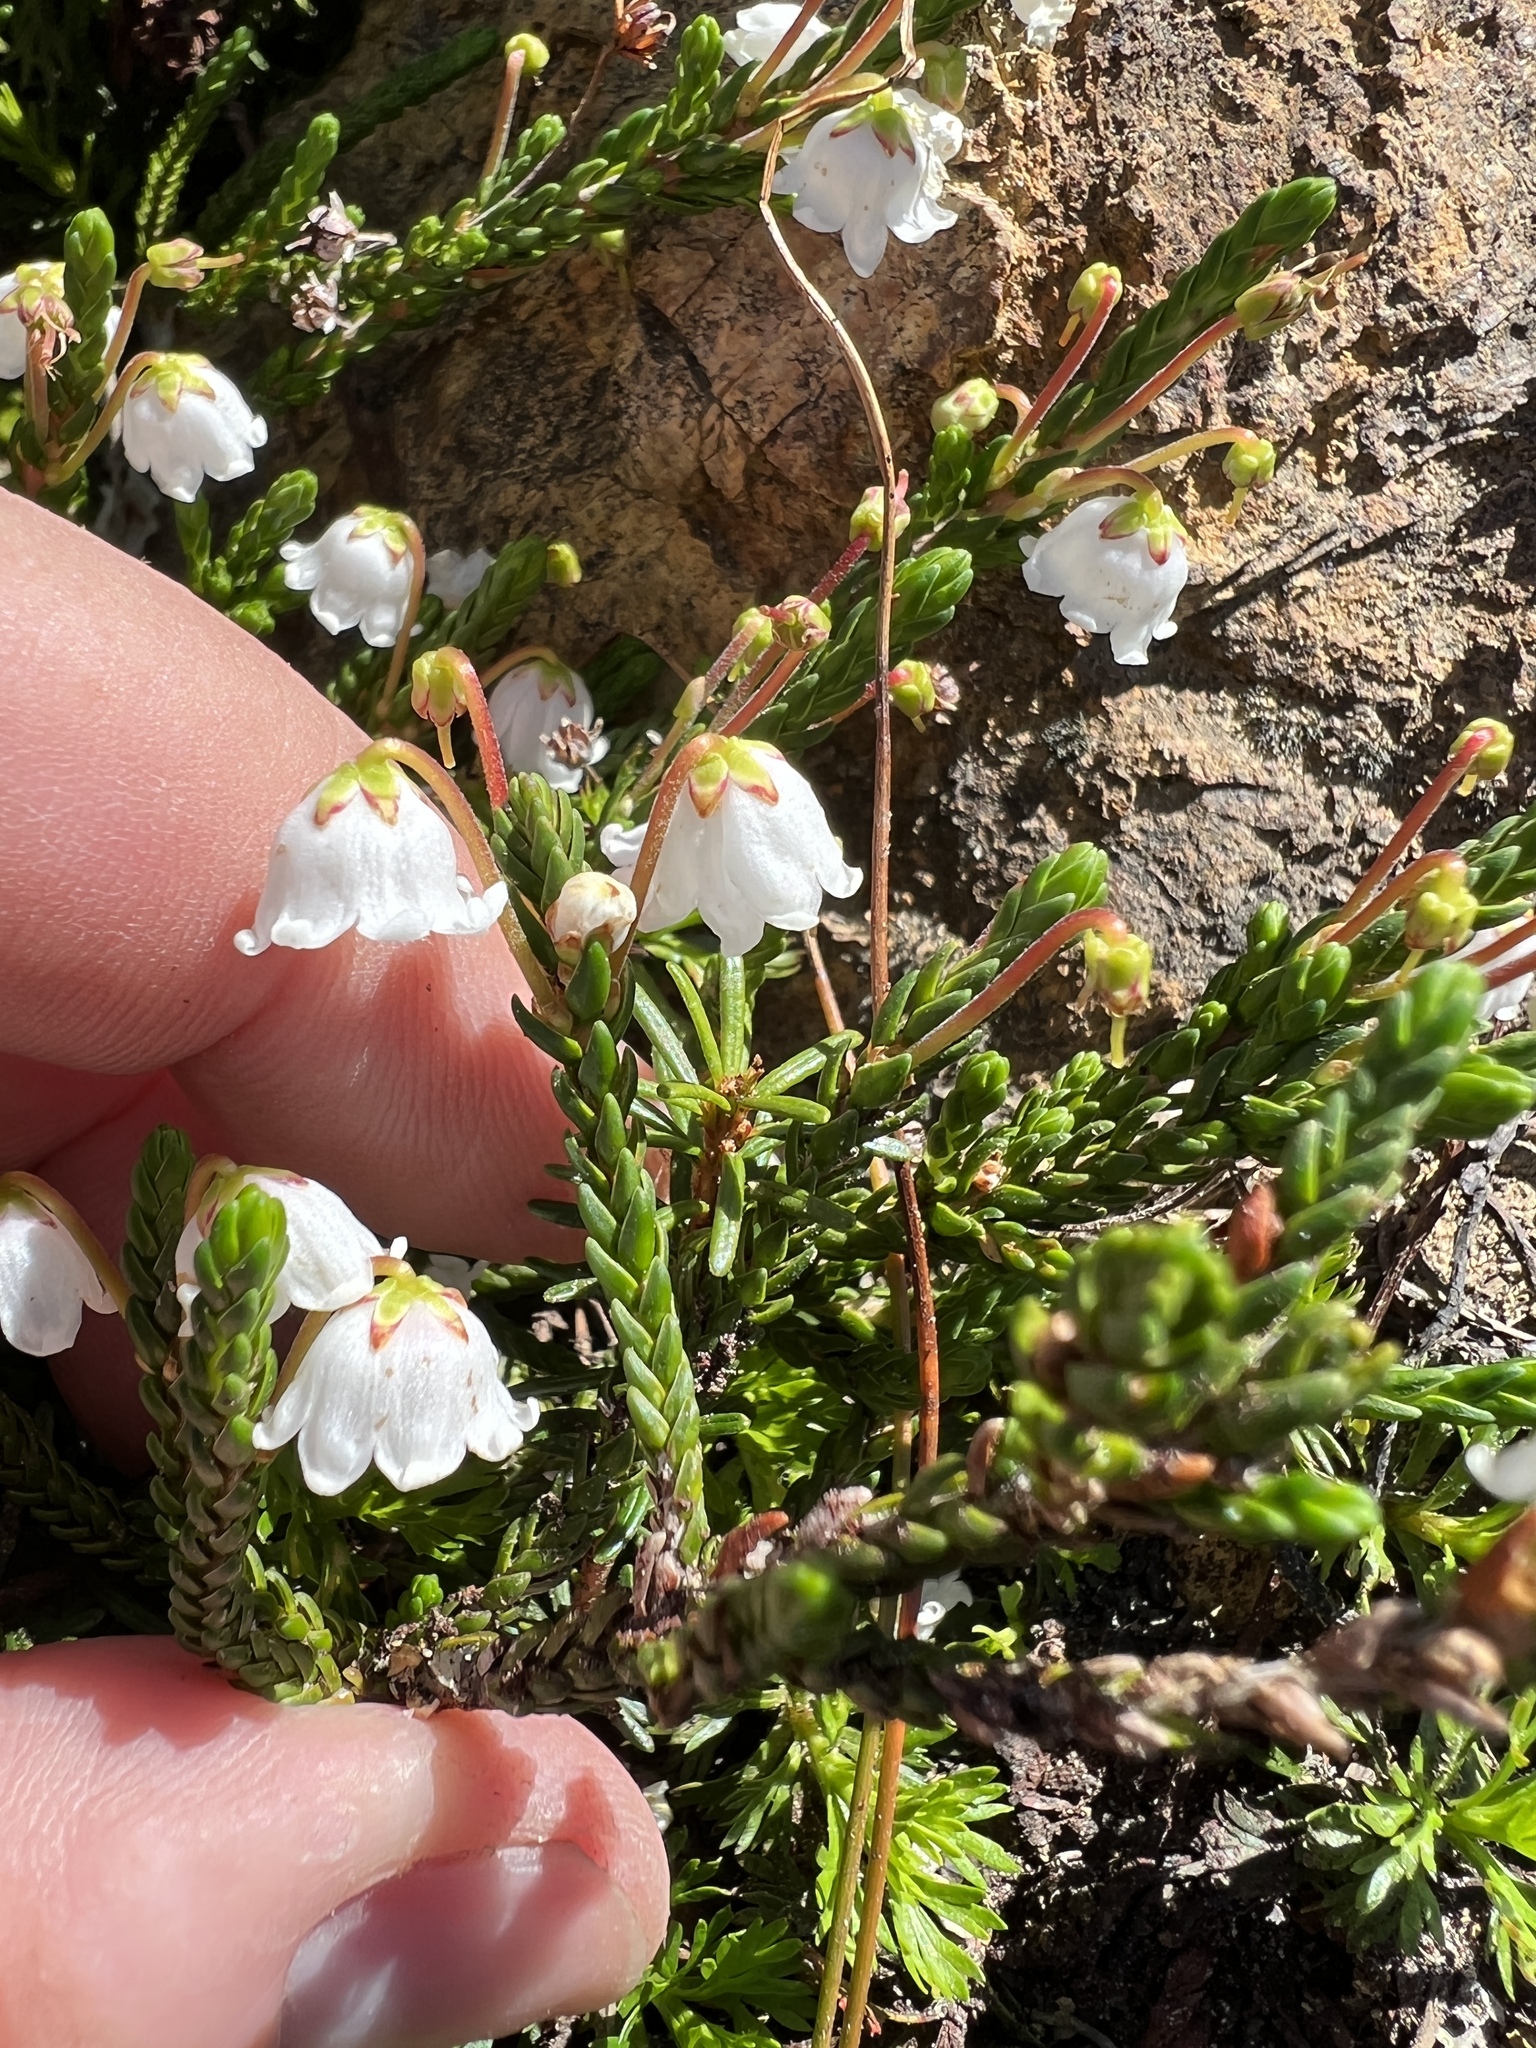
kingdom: Plantae
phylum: Tracheophyta
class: Magnoliopsida
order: Ericales
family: Ericaceae
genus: Cassiope
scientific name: Cassiope mertensiana
